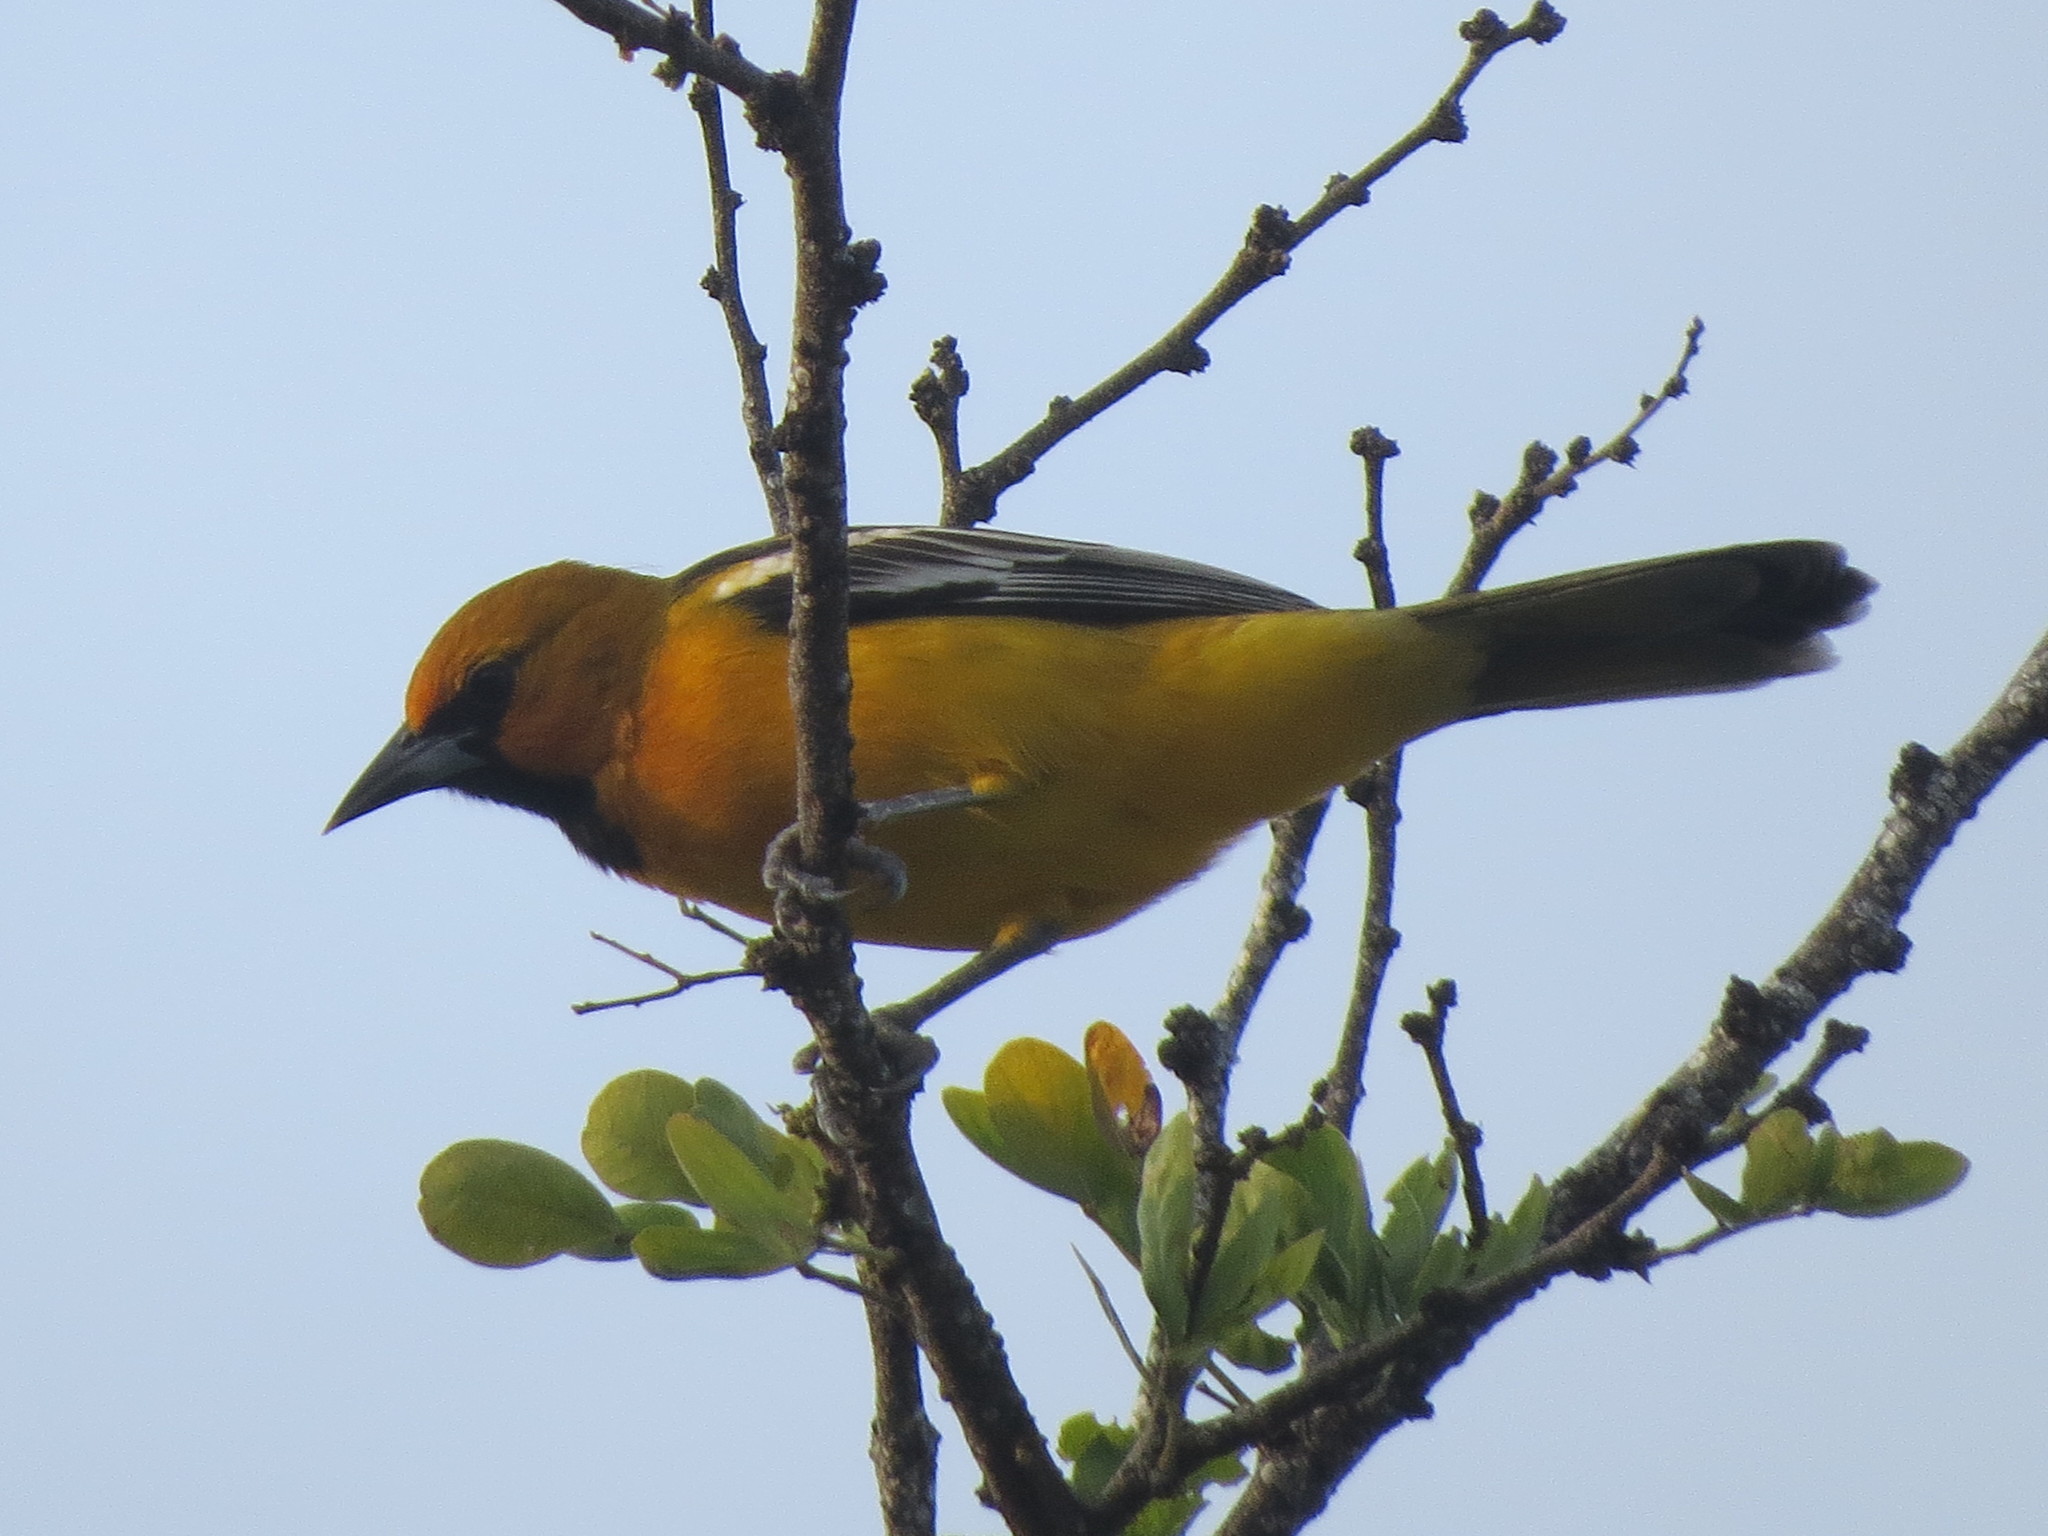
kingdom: Animalia
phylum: Chordata
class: Aves
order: Passeriformes
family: Icteridae
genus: Icterus
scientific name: Icterus pustulatus
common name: Streak-backed oriole
